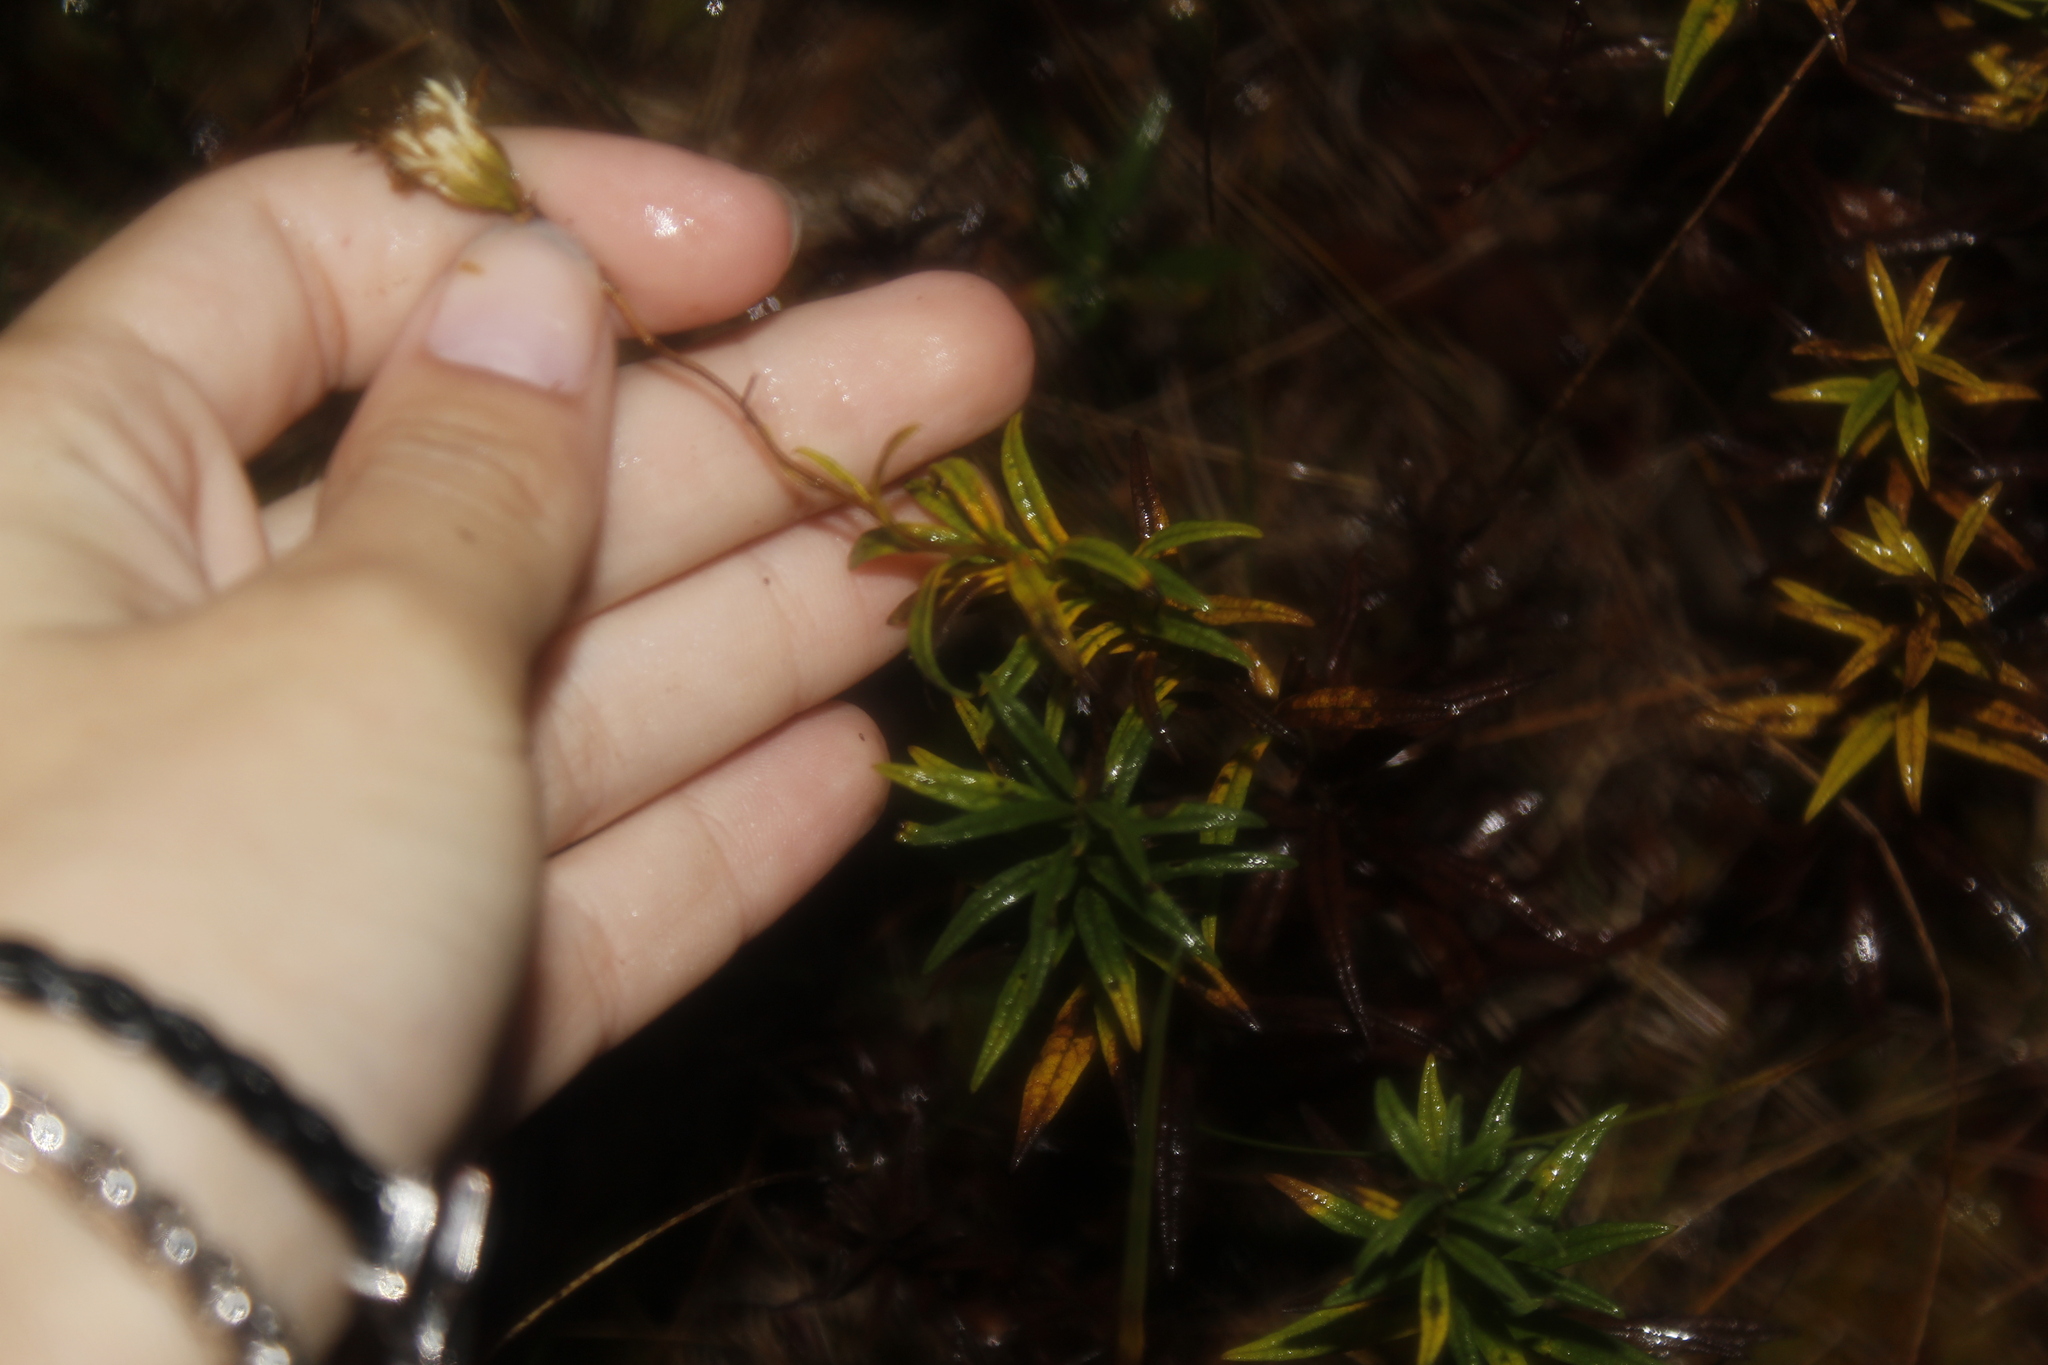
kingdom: Plantae
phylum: Tracheophyta
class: Magnoliopsida
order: Asterales
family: Asteraceae
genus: Oclemena
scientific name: Oclemena nemoralis
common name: Bog aster
